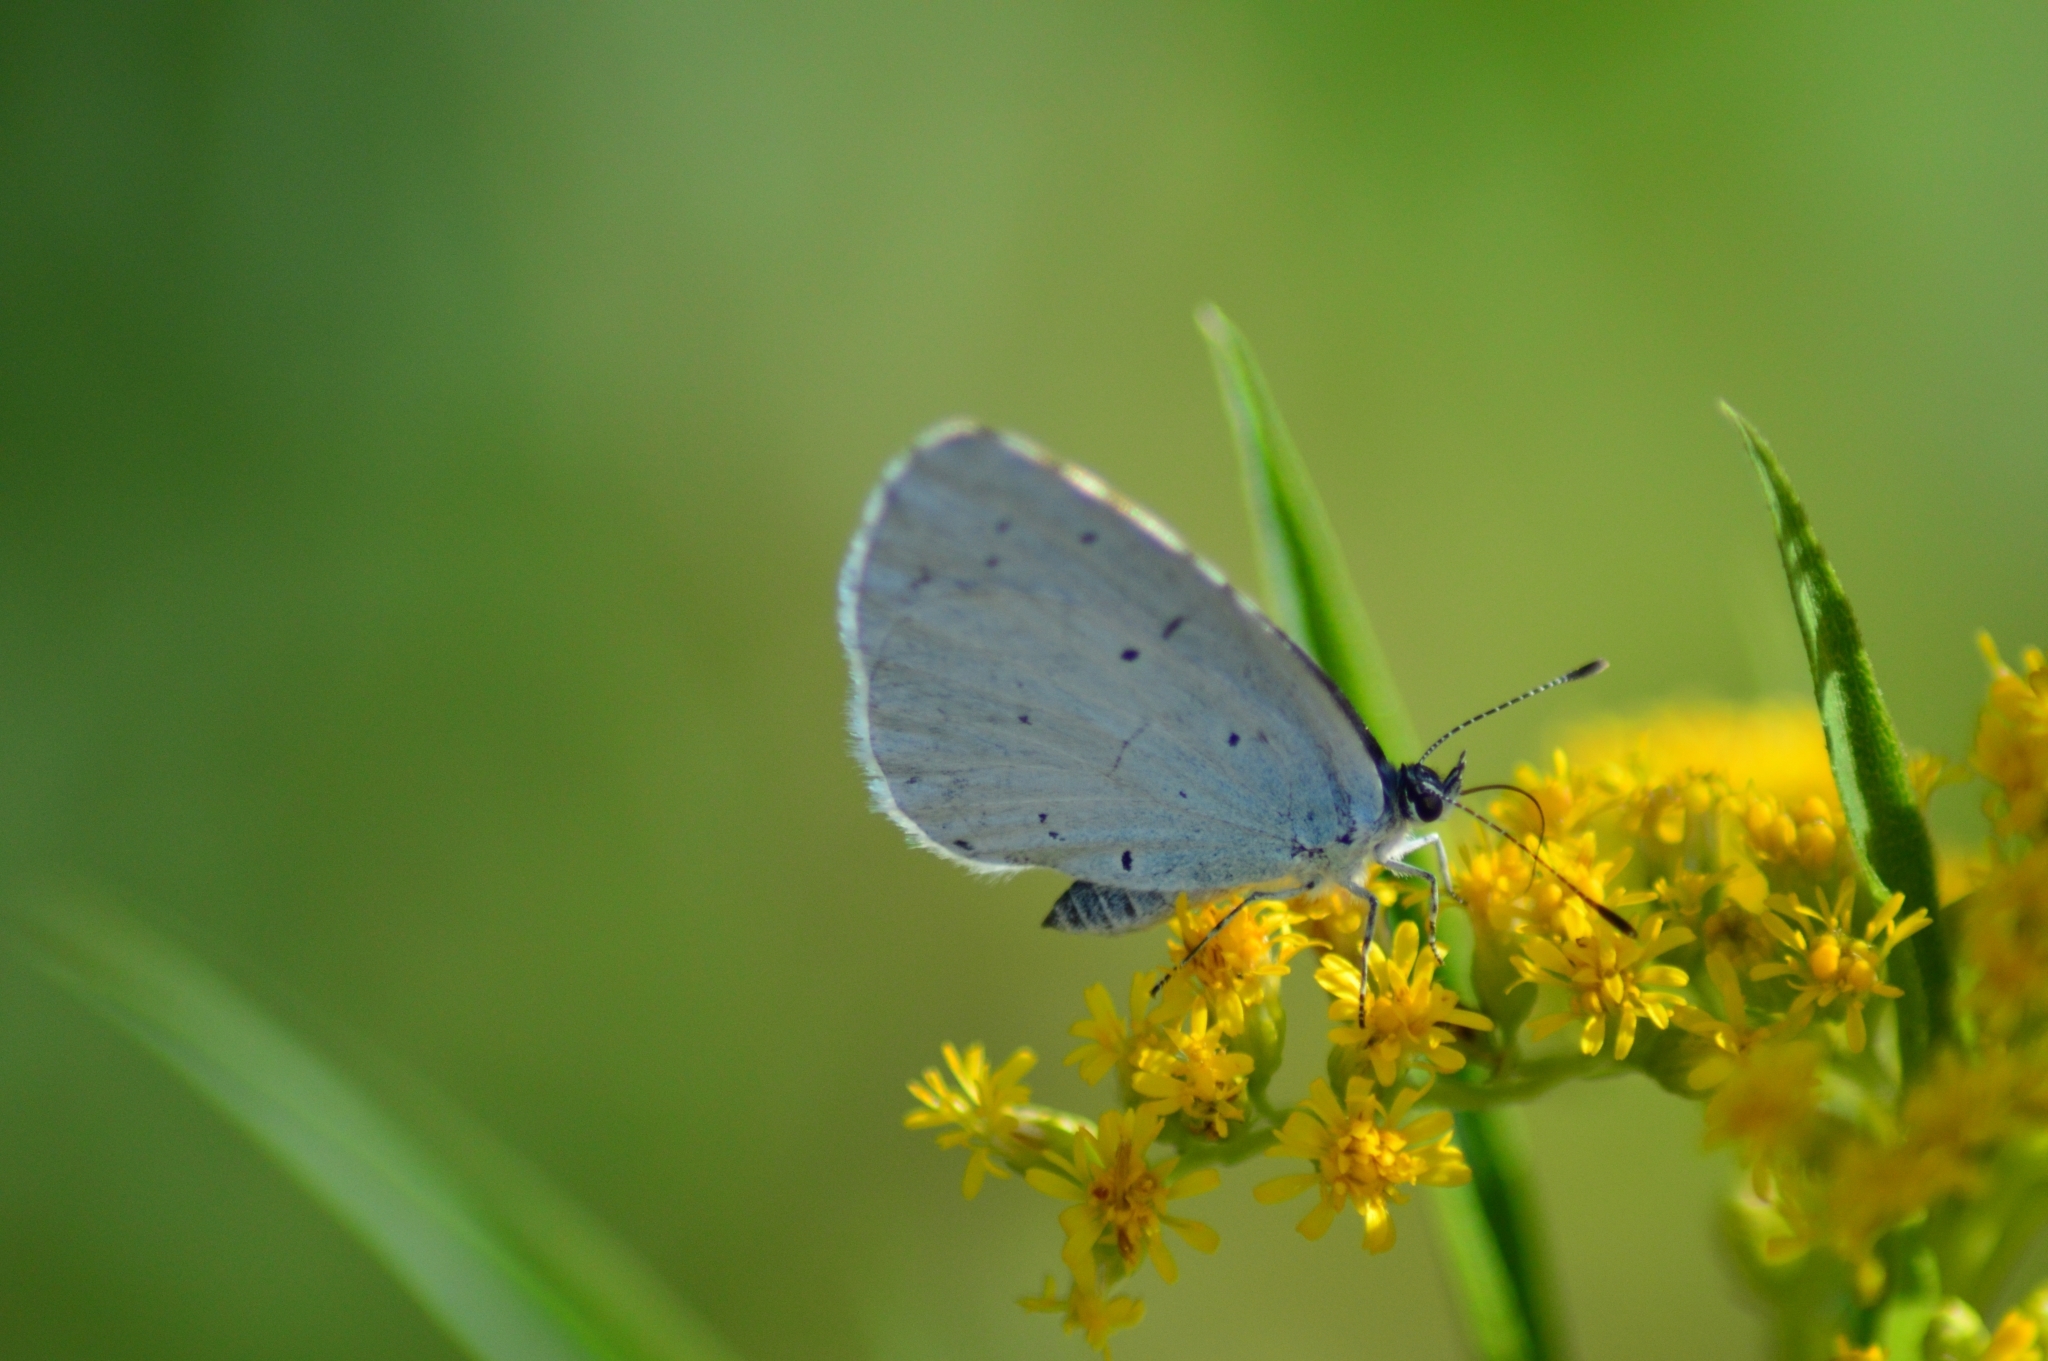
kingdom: Animalia
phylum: Arthropoda
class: Insecta
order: Lepidoptera
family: Lycaenidae
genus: Celastrina
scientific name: Celastrina argiolus
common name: Holly blue
